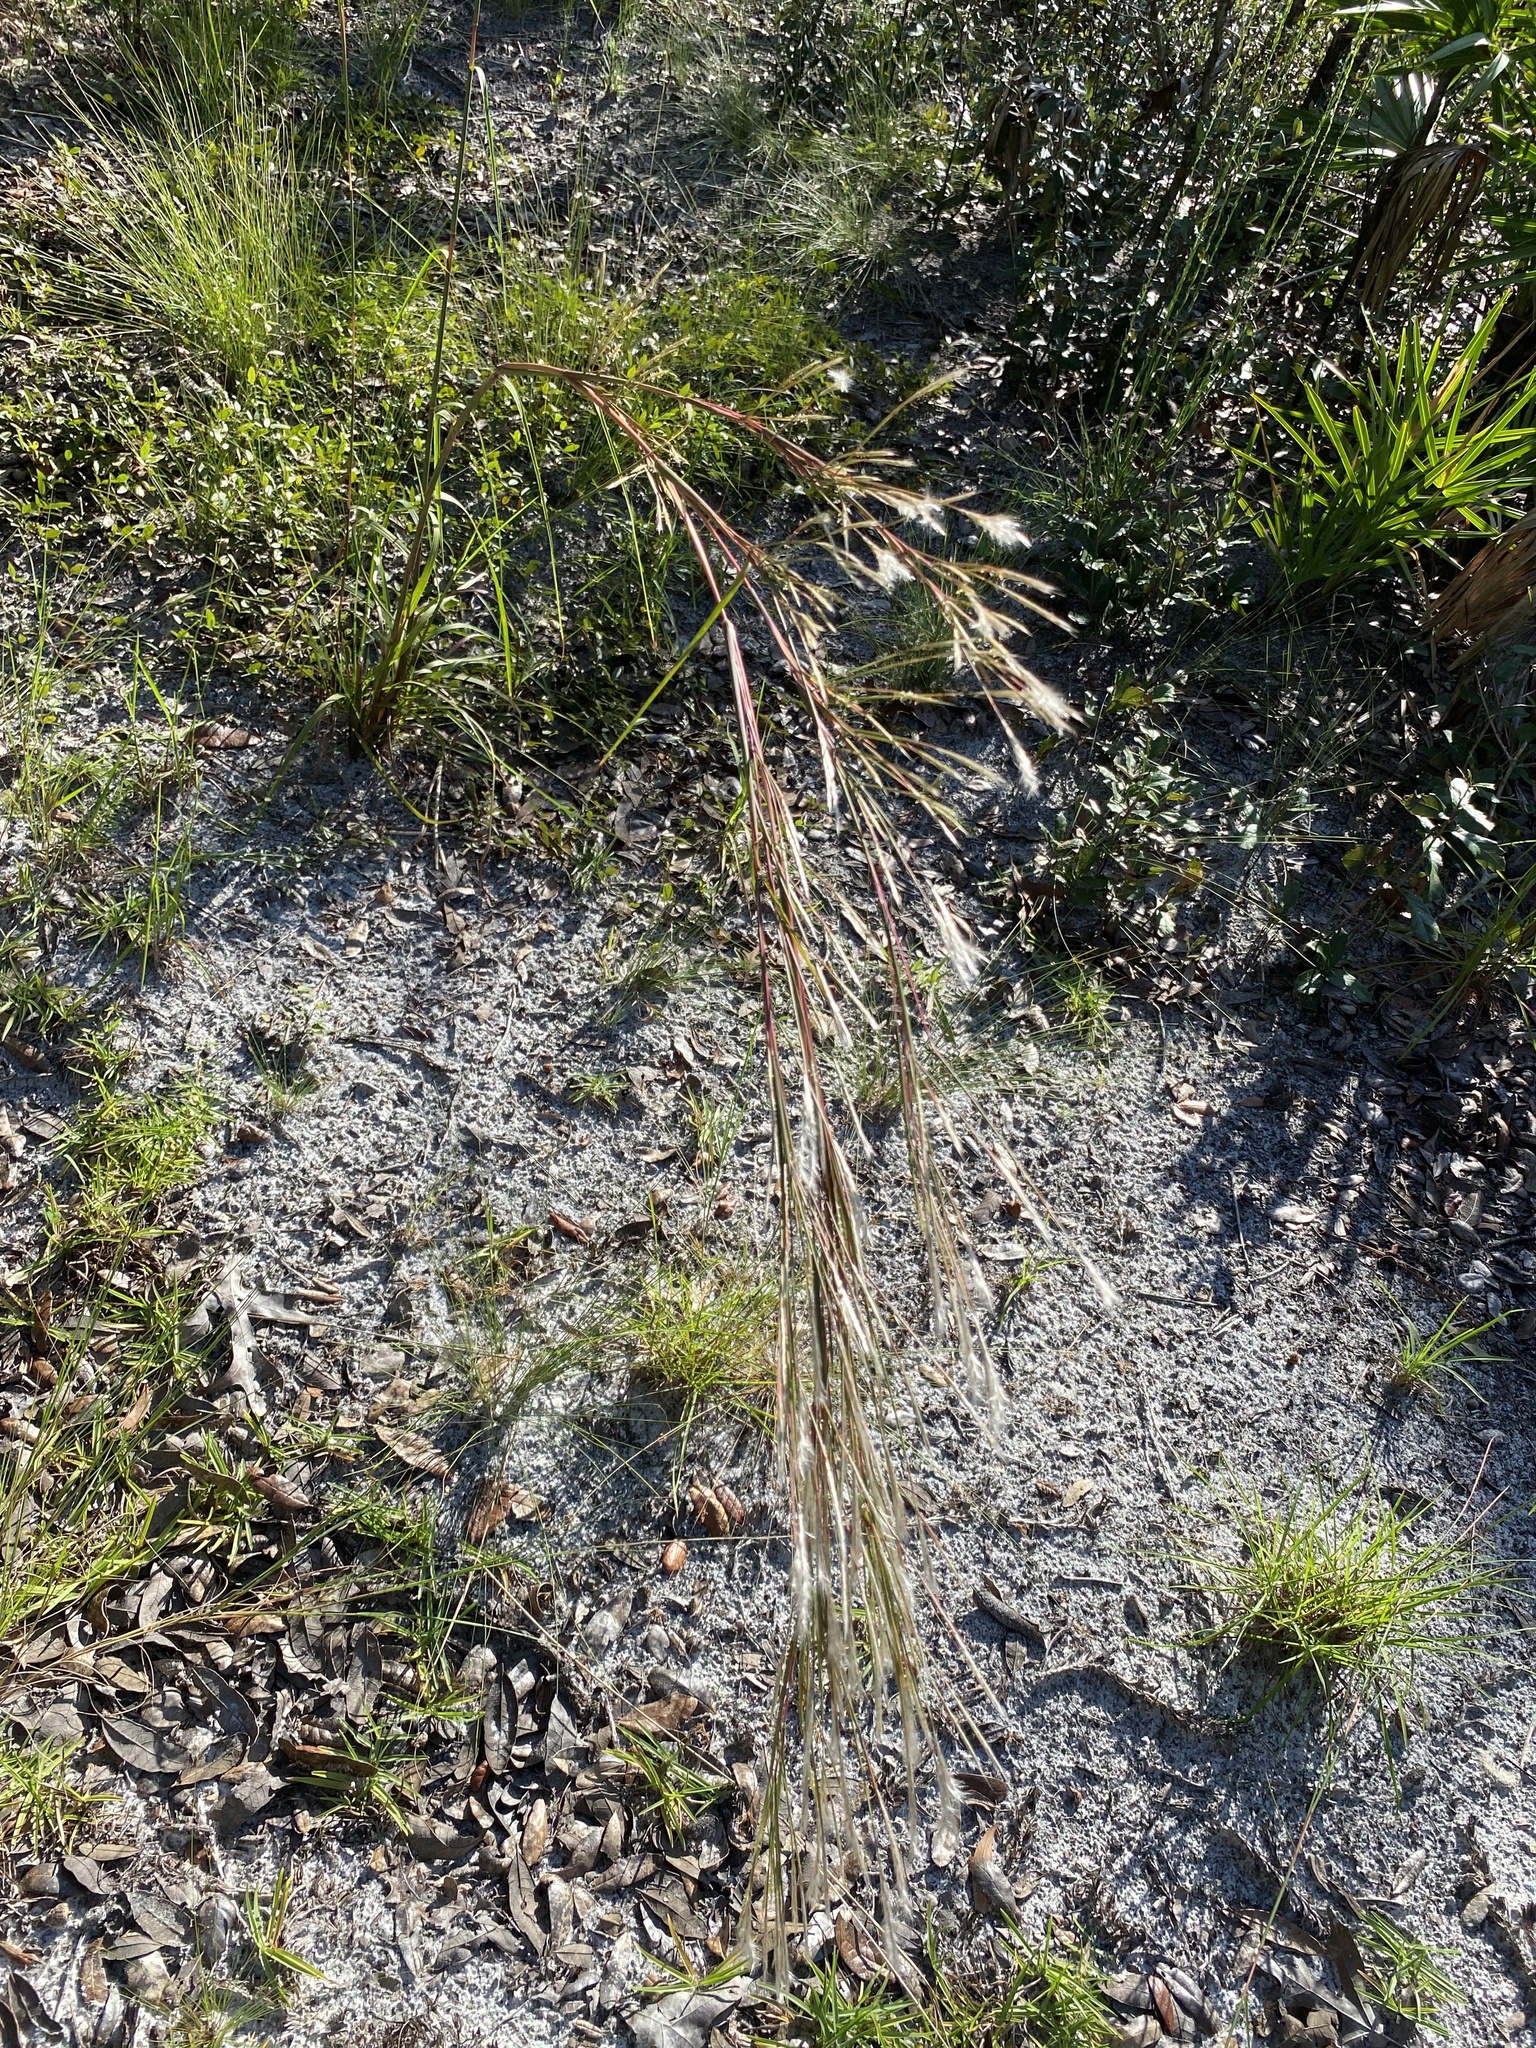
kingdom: Plantae
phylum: Tracheophyta
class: Liliopsida
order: Poales
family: Poaceae
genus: Andropogon
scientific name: Andropogon floridanus
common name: Florida bluestem
